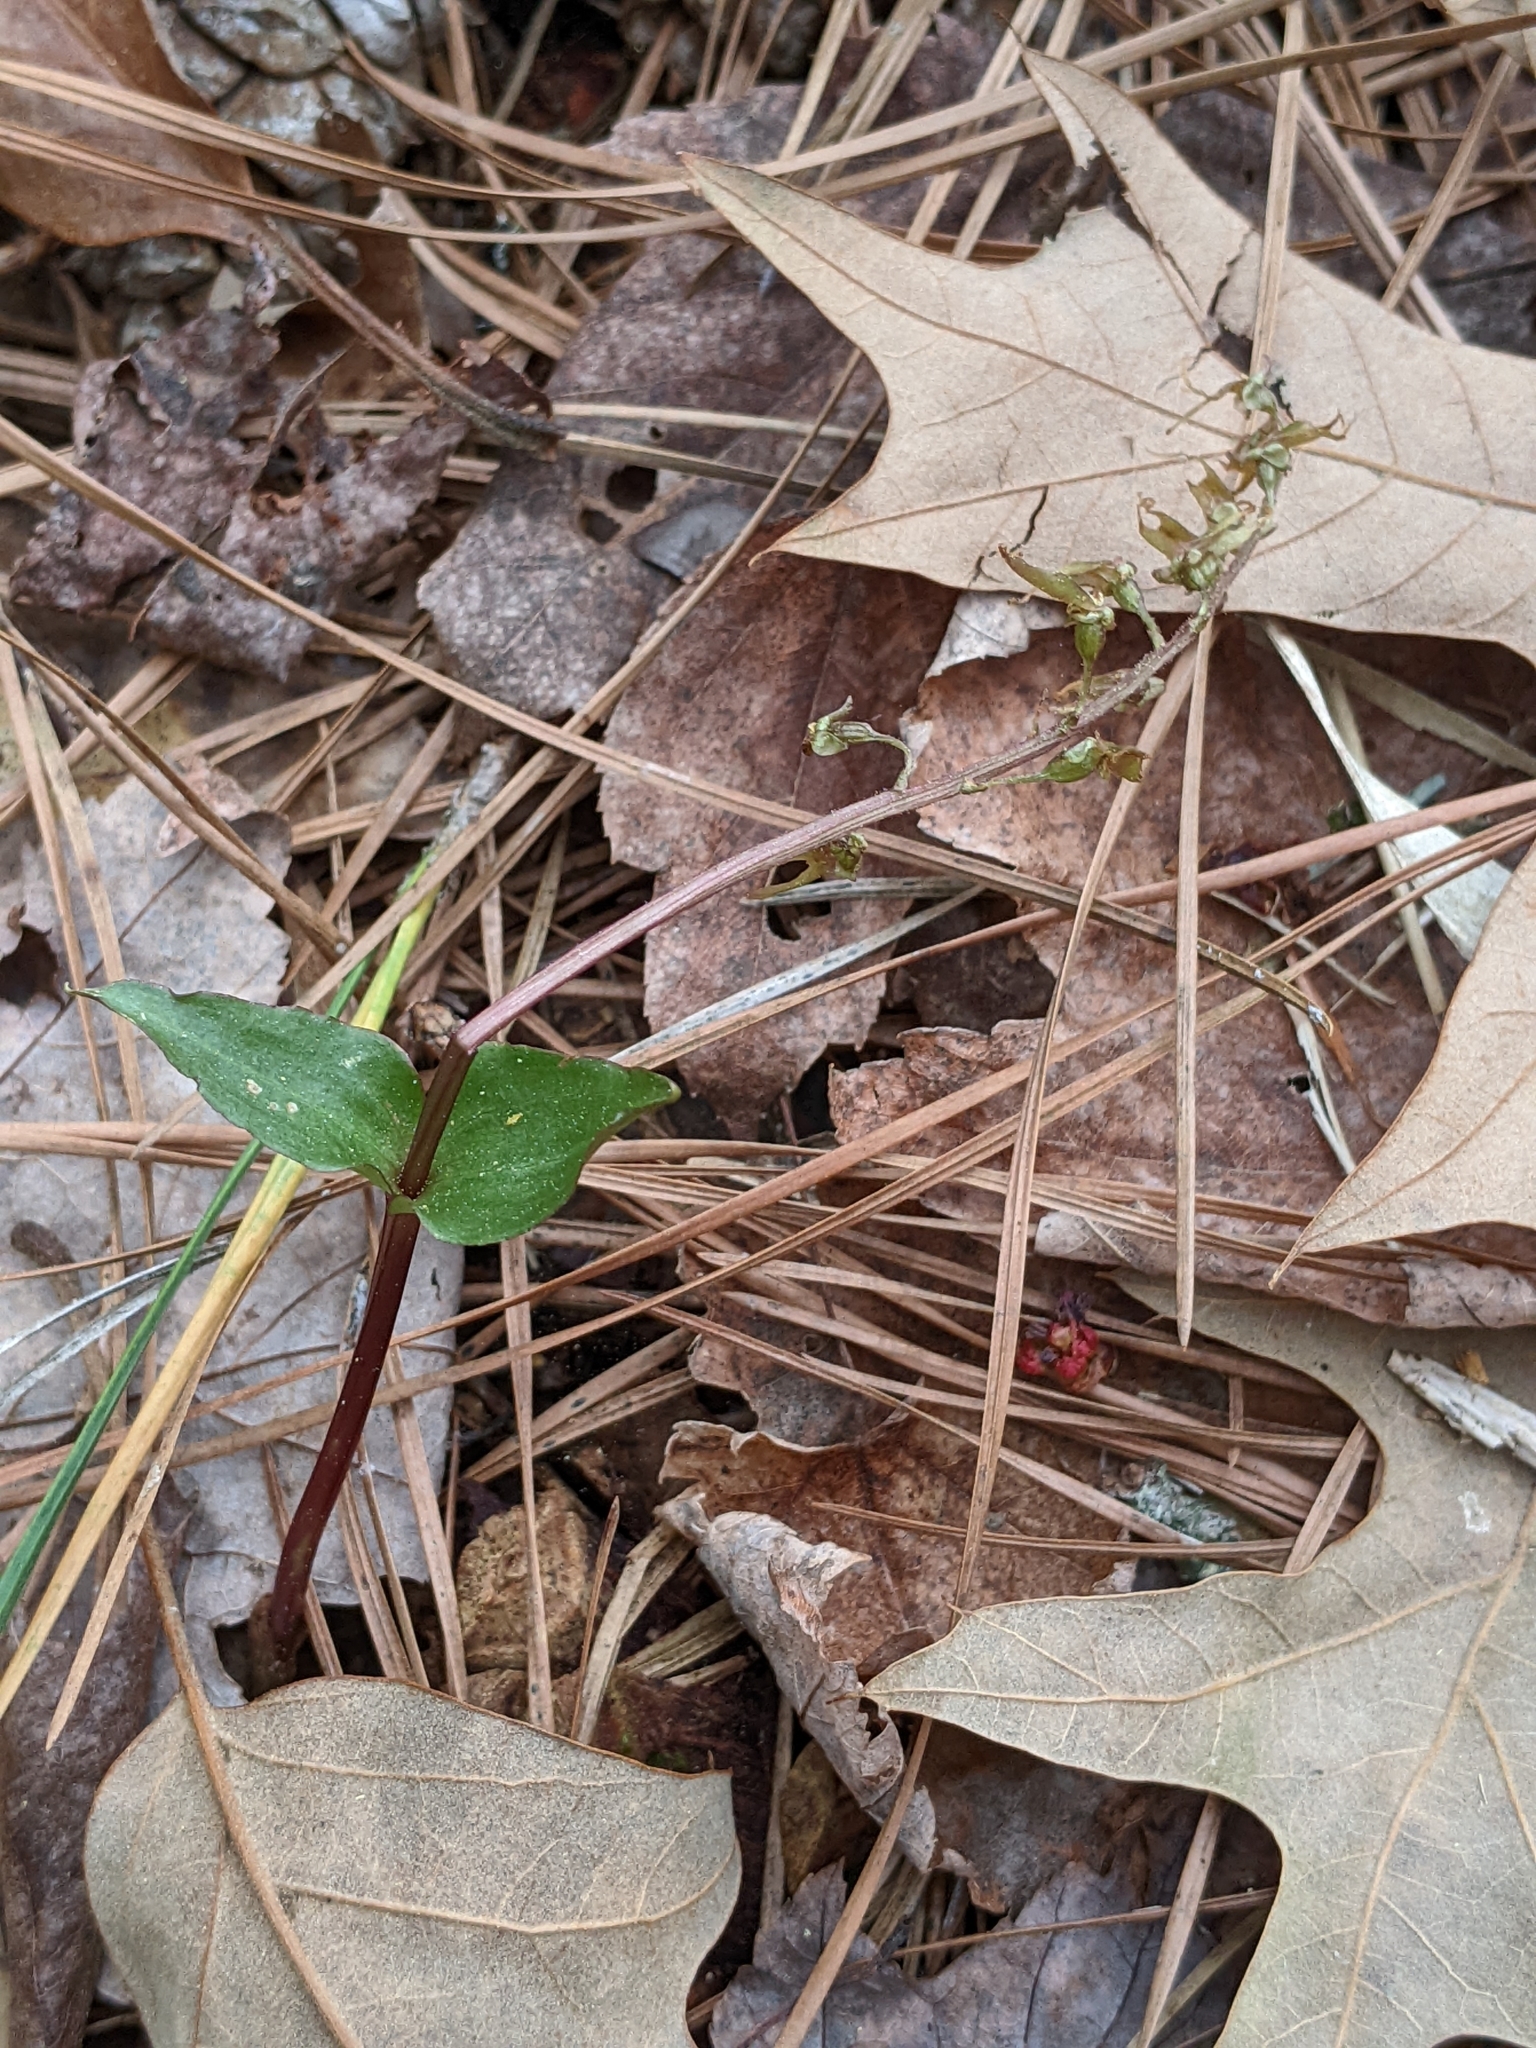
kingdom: Plantae
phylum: Tracheophyta
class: Liliopsida
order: Asparagales
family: Orchidaceae
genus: Neottia
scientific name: Neottia bifolia
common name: Southern twayblade
